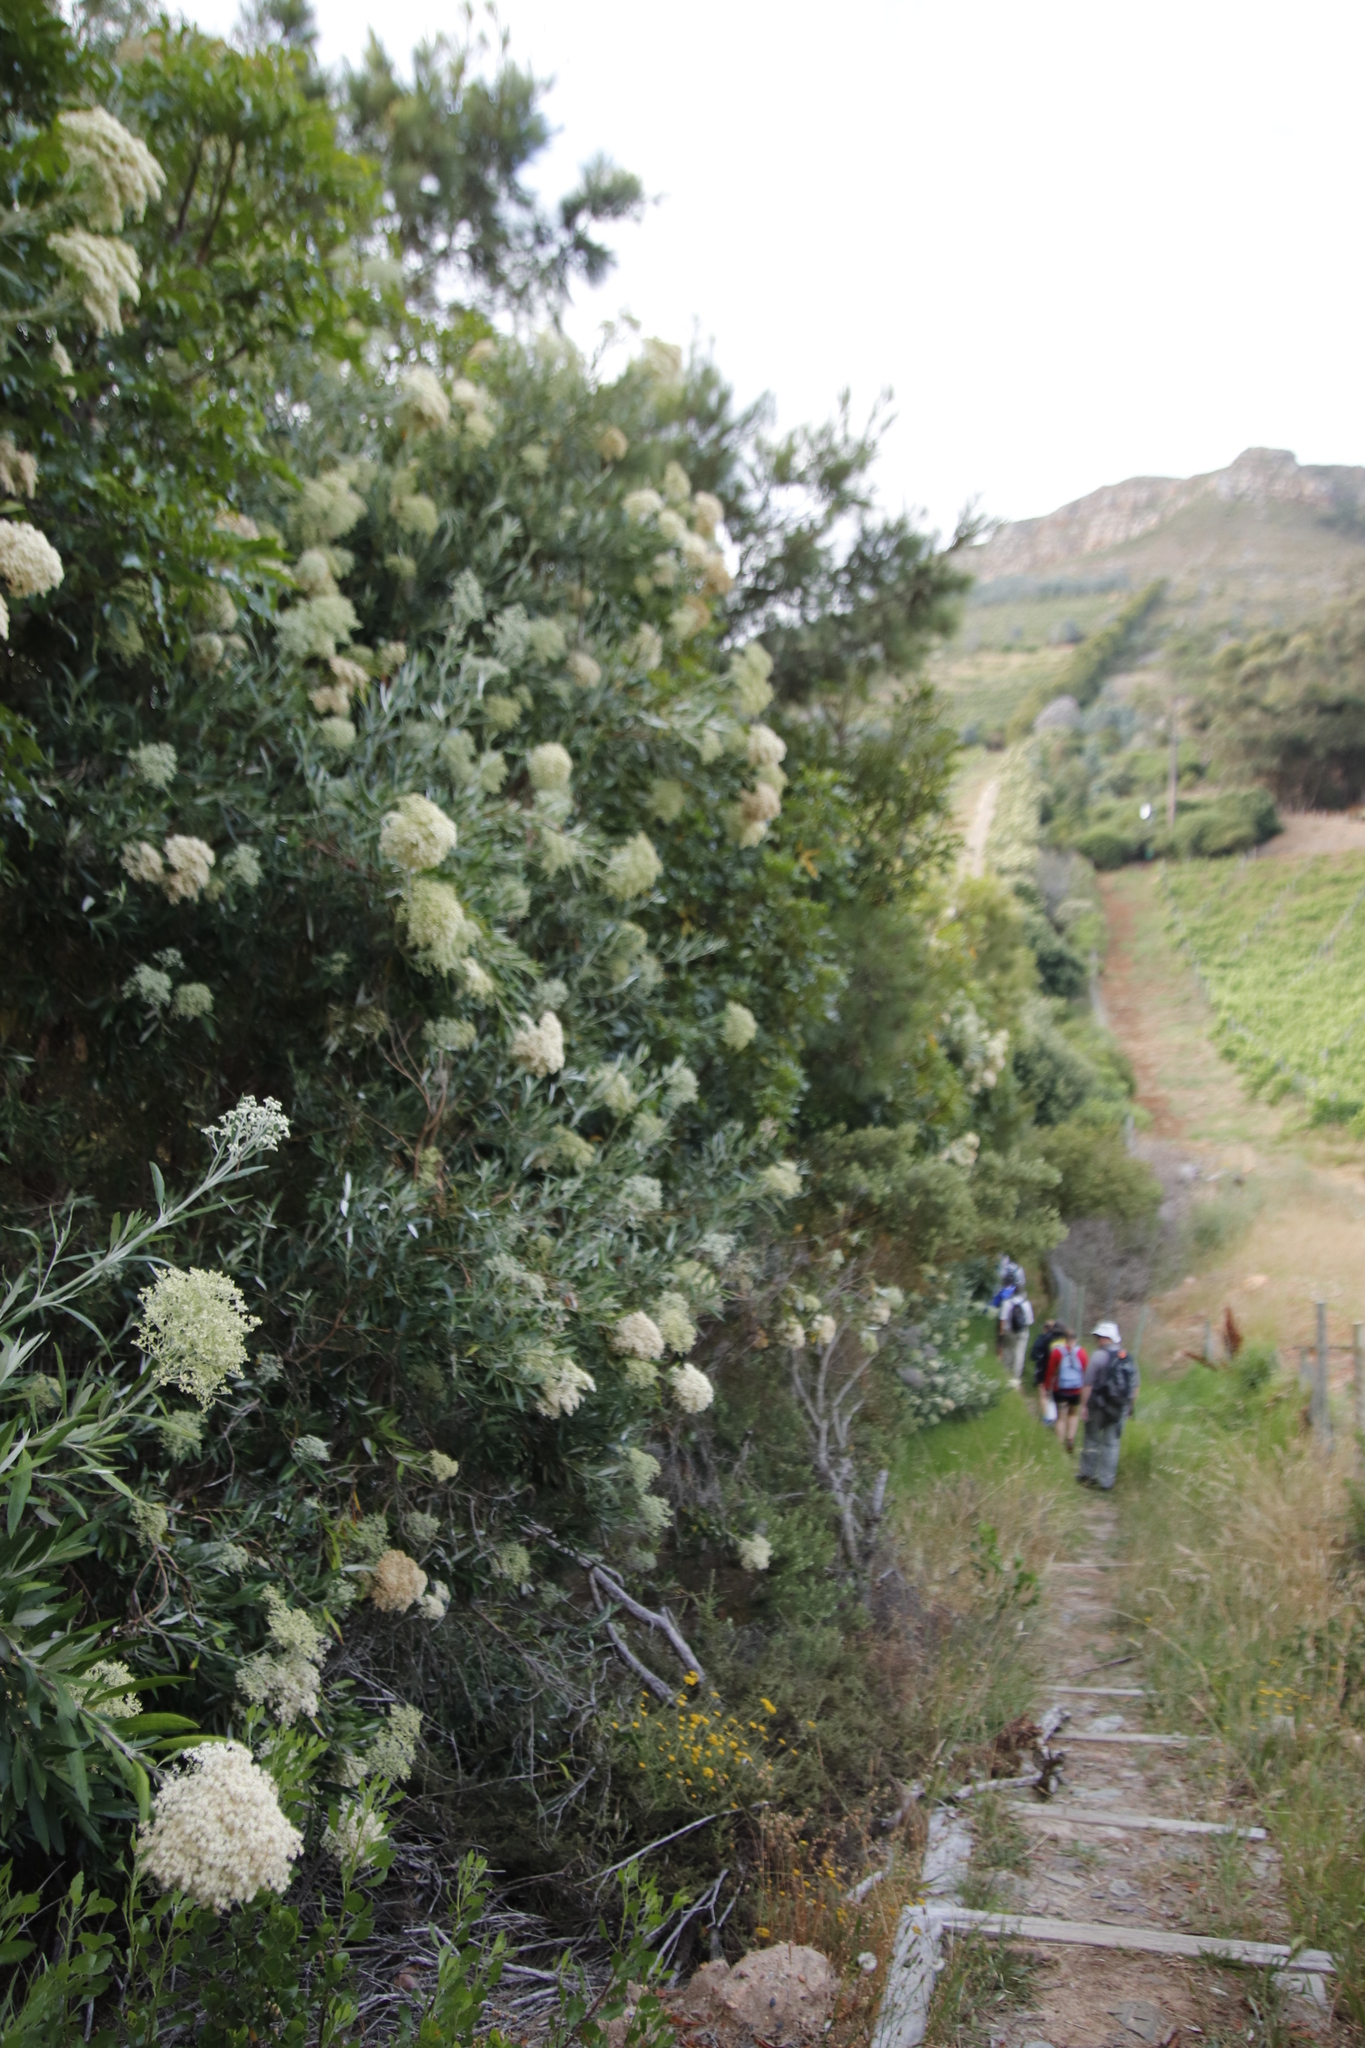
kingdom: Plantae
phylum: Tracheophyta
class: Magnoliopsida
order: Lamiales
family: Scrophulariaceae
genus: Buddleja
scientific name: Buddleja saligna
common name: False olive
